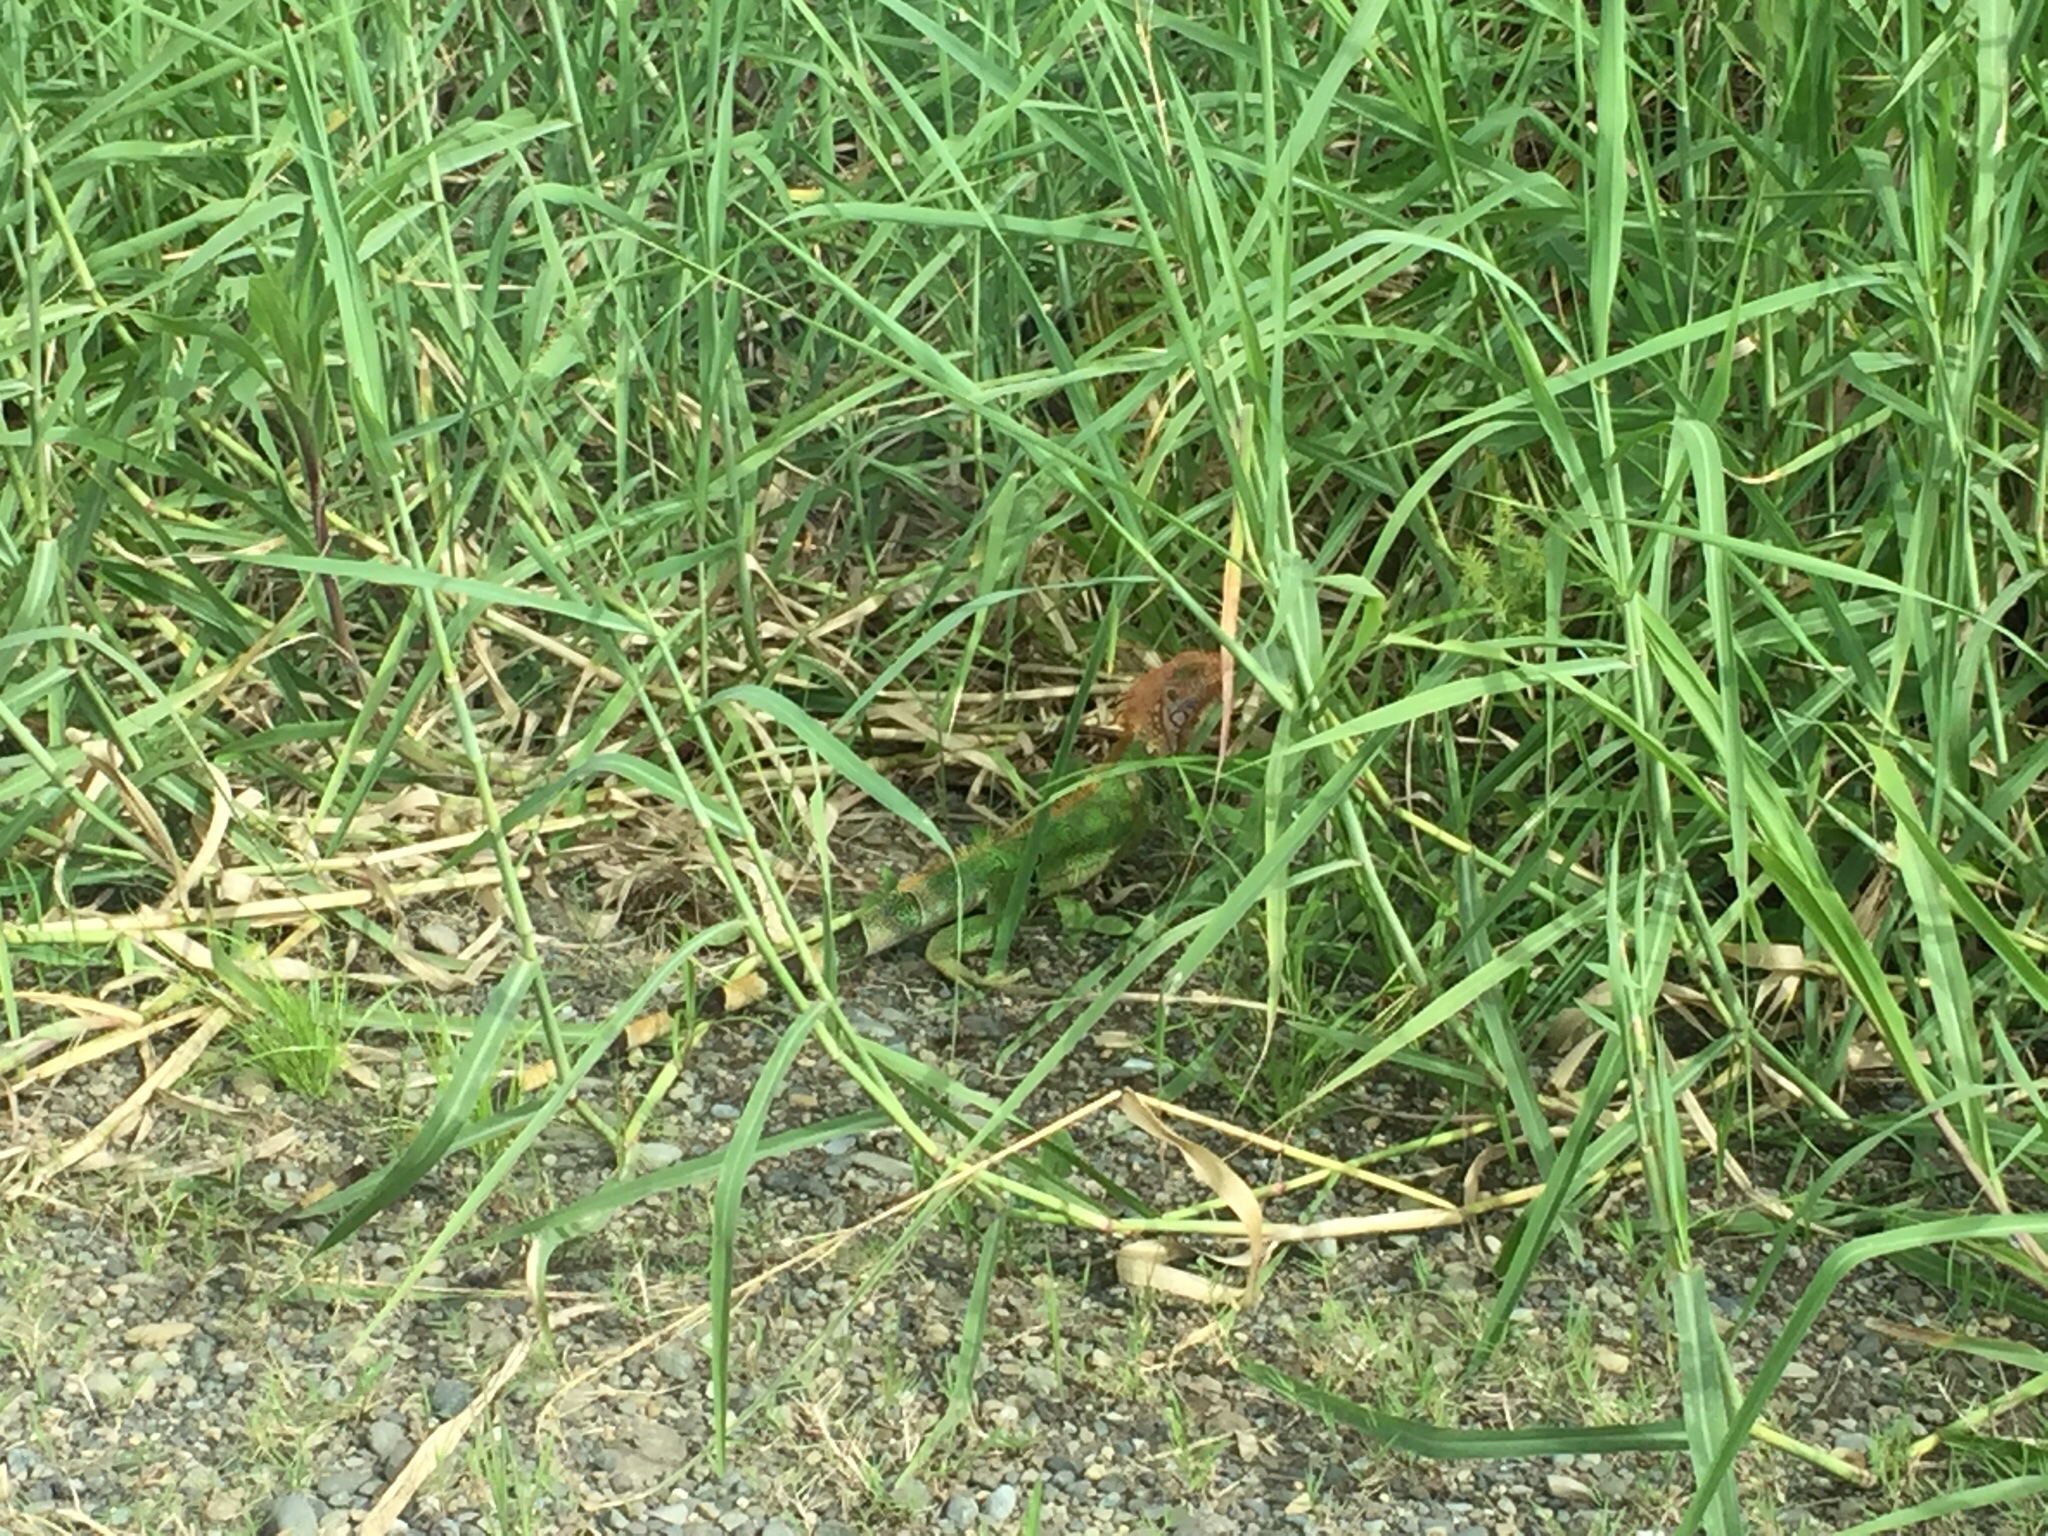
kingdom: Animalia
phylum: Chordata
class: Squamata
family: Iguanidae
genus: Iguana
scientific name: Iguana iguana
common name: Green iguana
